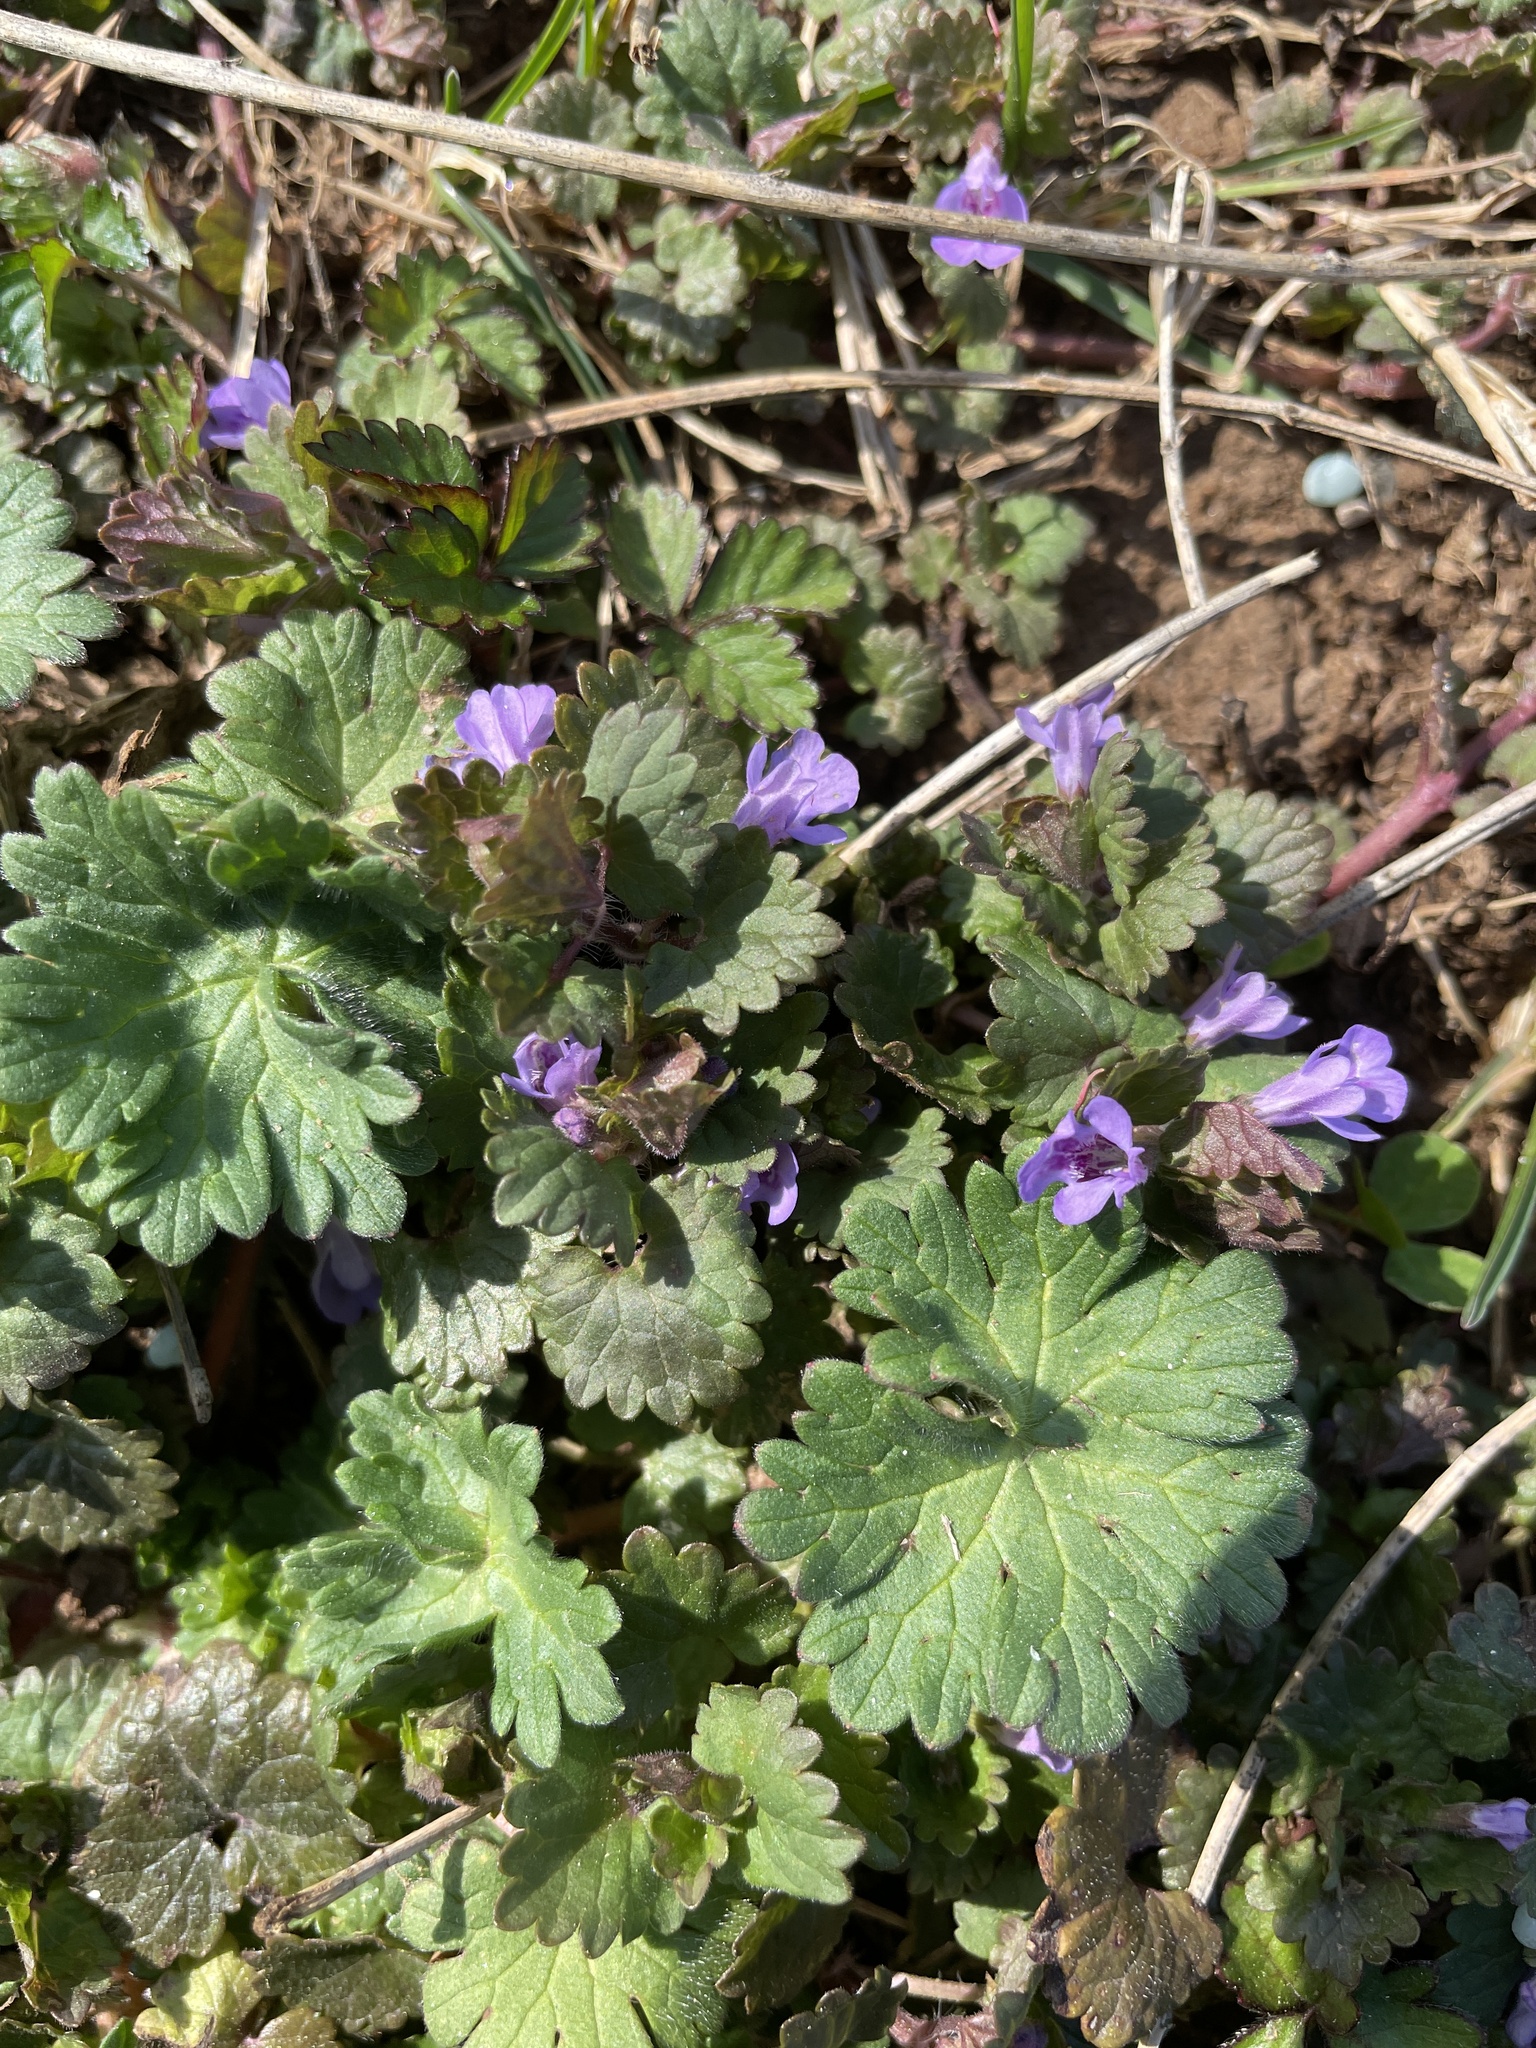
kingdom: Plantae
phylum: Tracheophyta
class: Magnoliopsida
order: Lamiales
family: Lamiaceae
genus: Glechoma
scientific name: Glechoma hederacea
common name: Ground ivy
